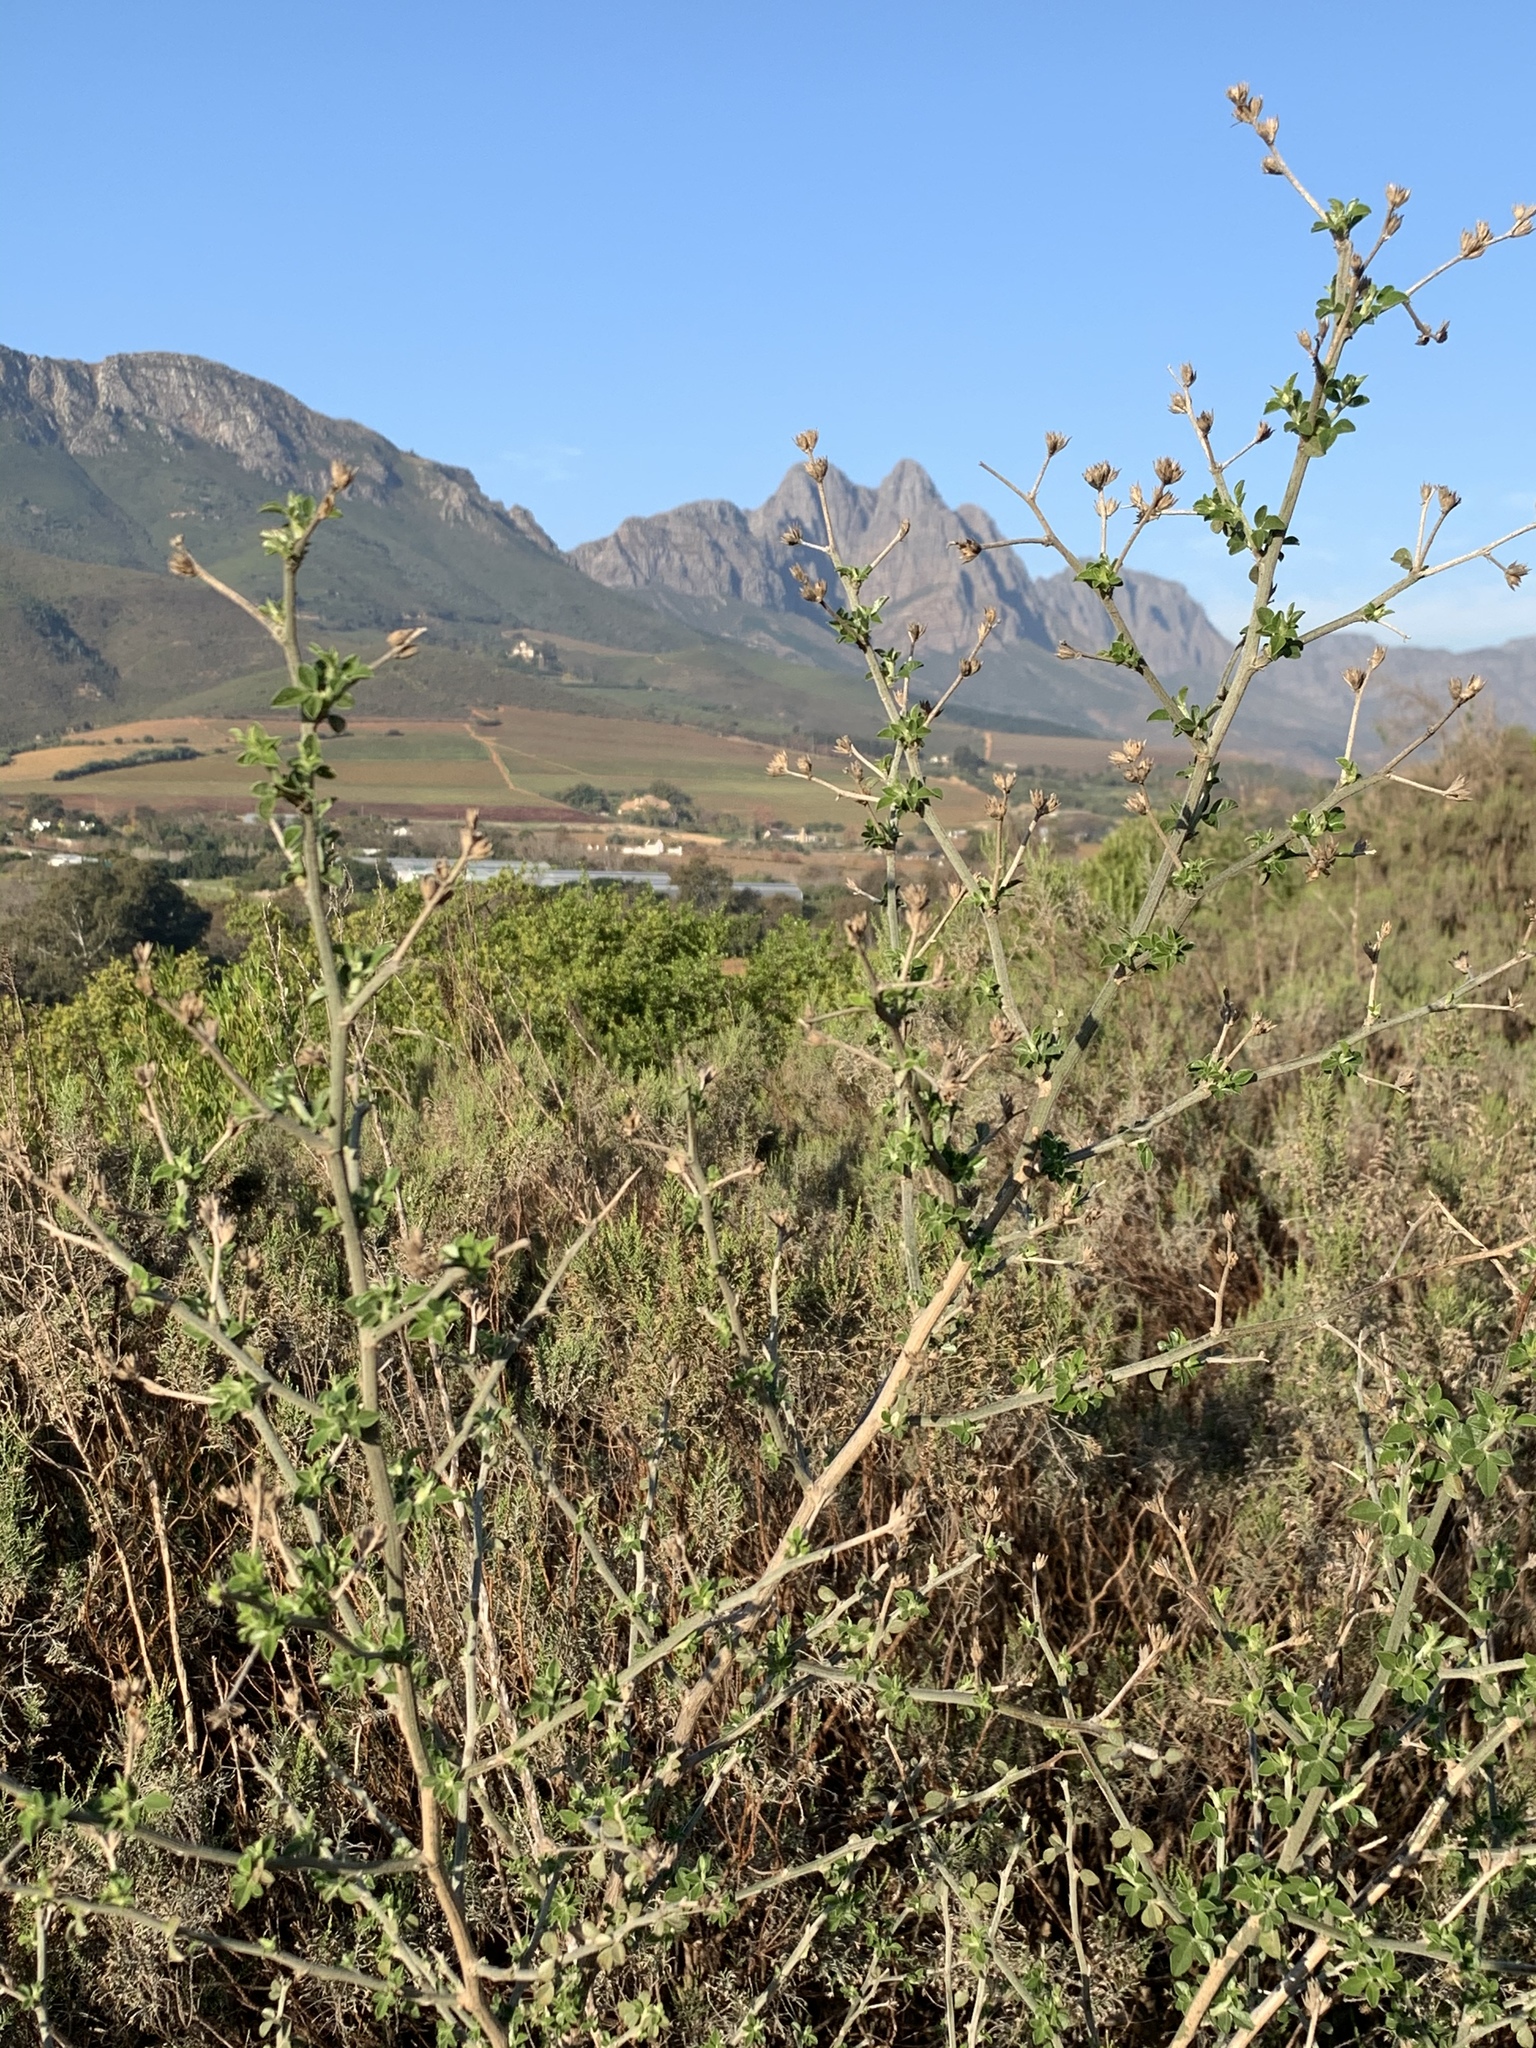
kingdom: Plantae
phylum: Tracheophyta
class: Magnoliopsida
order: Fabales
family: Fabaceae
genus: Psoralea
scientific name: Psoralea hirta
